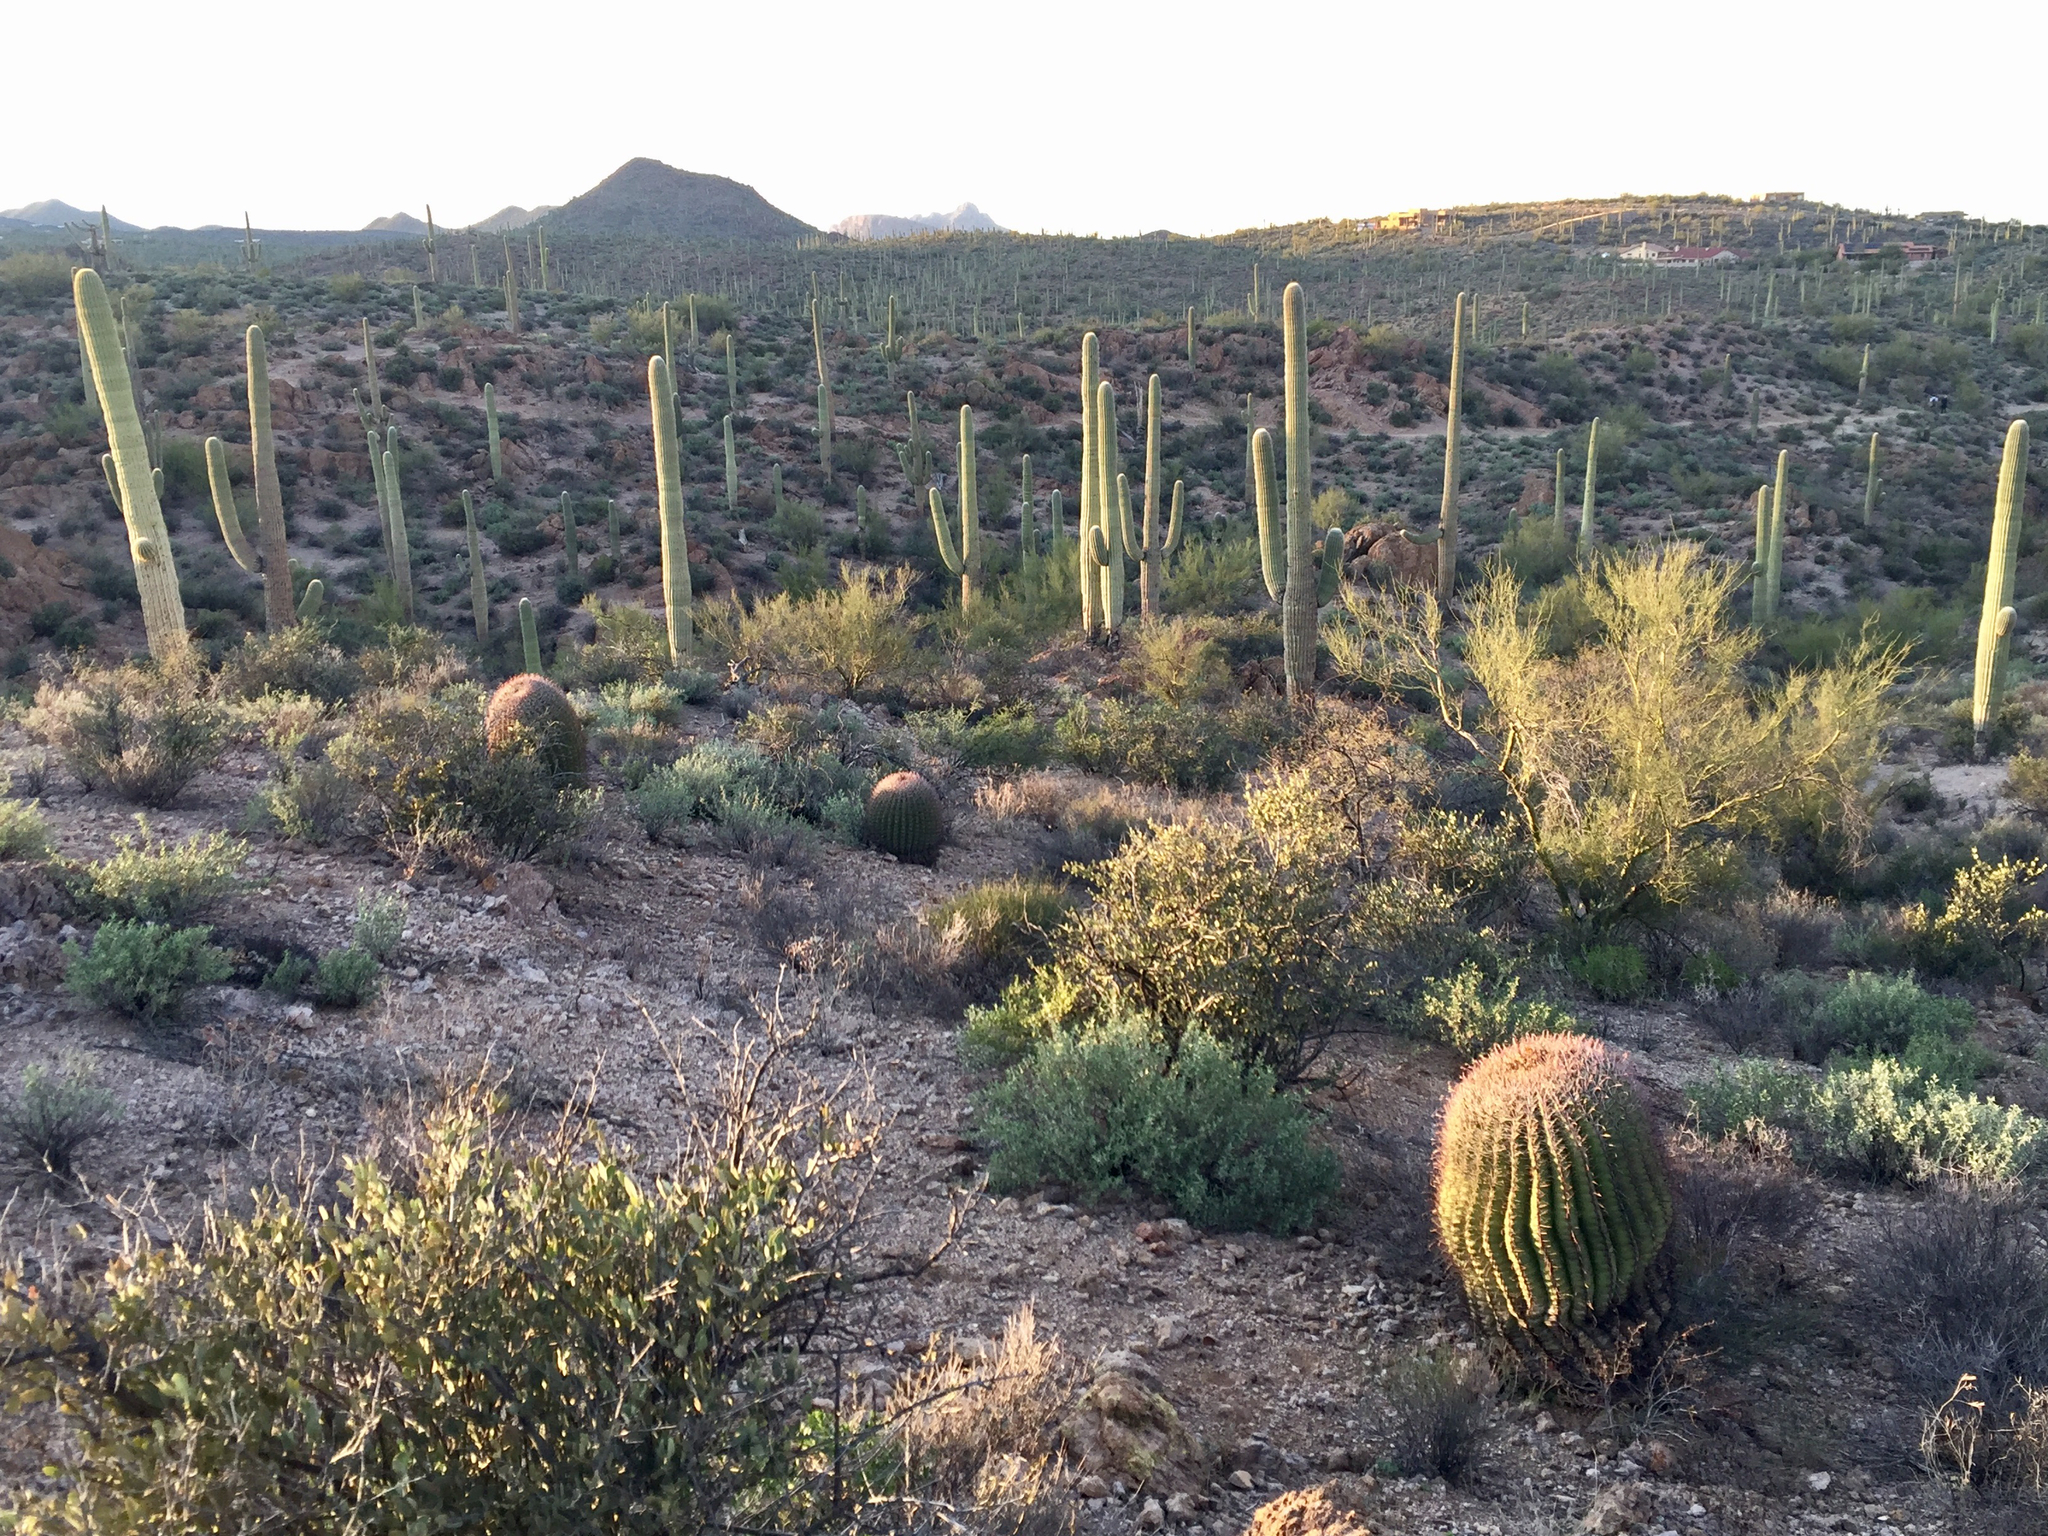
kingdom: Plantae
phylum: Tracheophyta
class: Magnoliopsida
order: Caryophyllales
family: Cactaceae
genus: Carnegiea
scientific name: Carnegiea gigantea
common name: Saguaro
